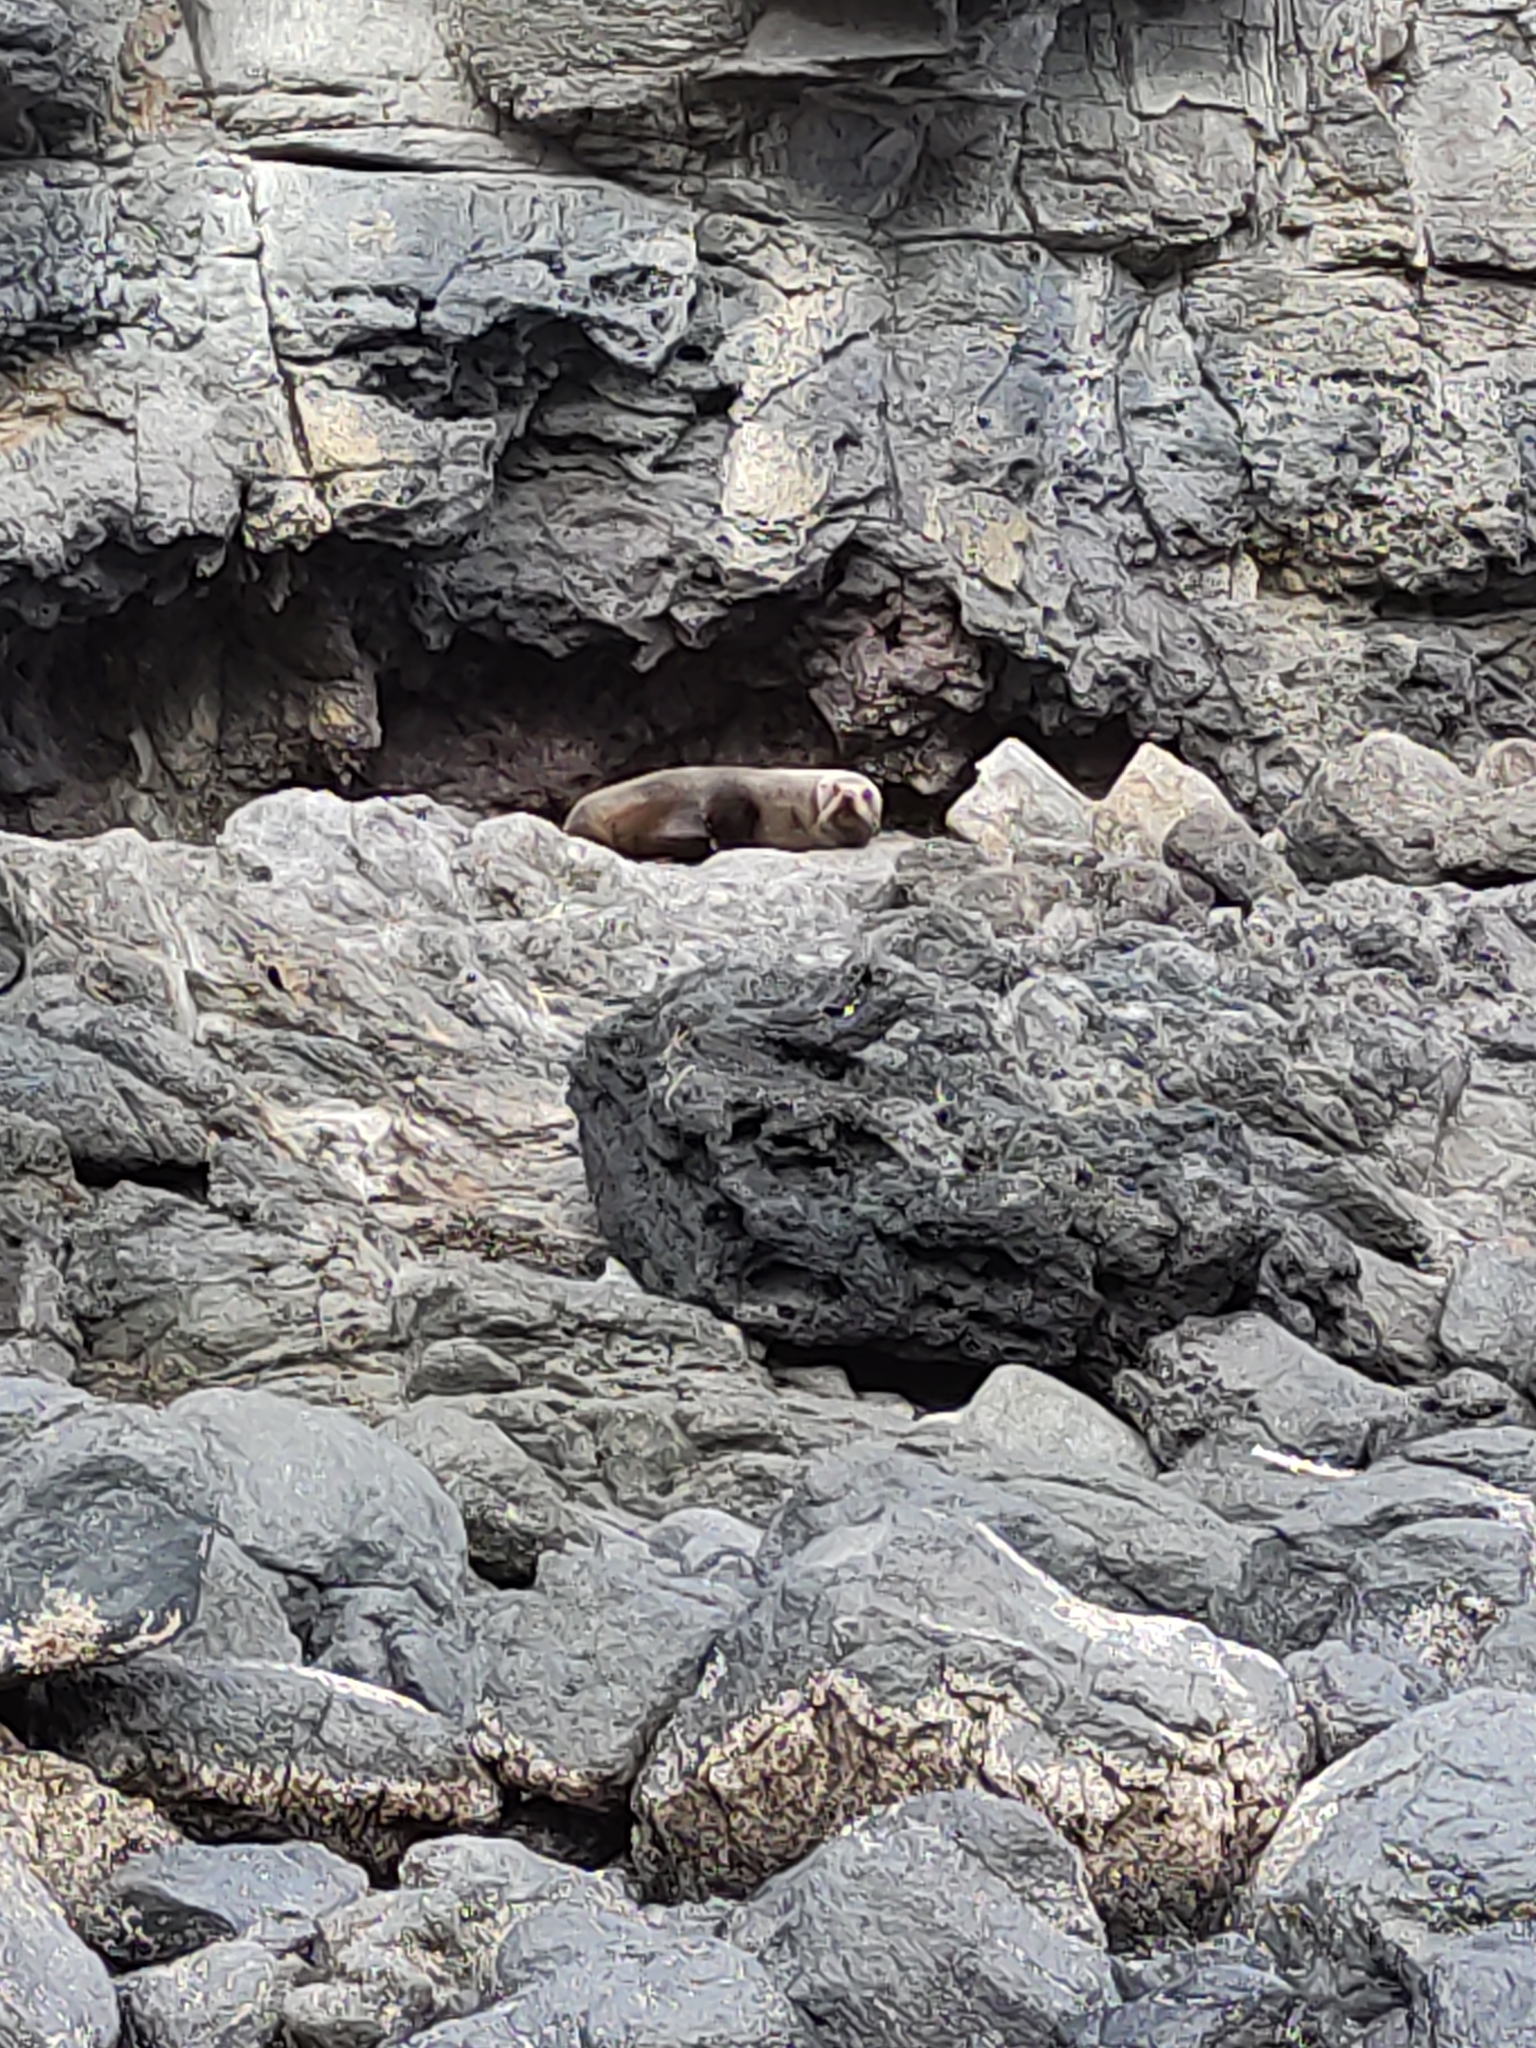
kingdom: Animalia
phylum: Chordata
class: Mammalia
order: Carnivora
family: Otariidae
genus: Arctocephalus
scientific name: Arctocephalus forsteri
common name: New zealand fur seal
